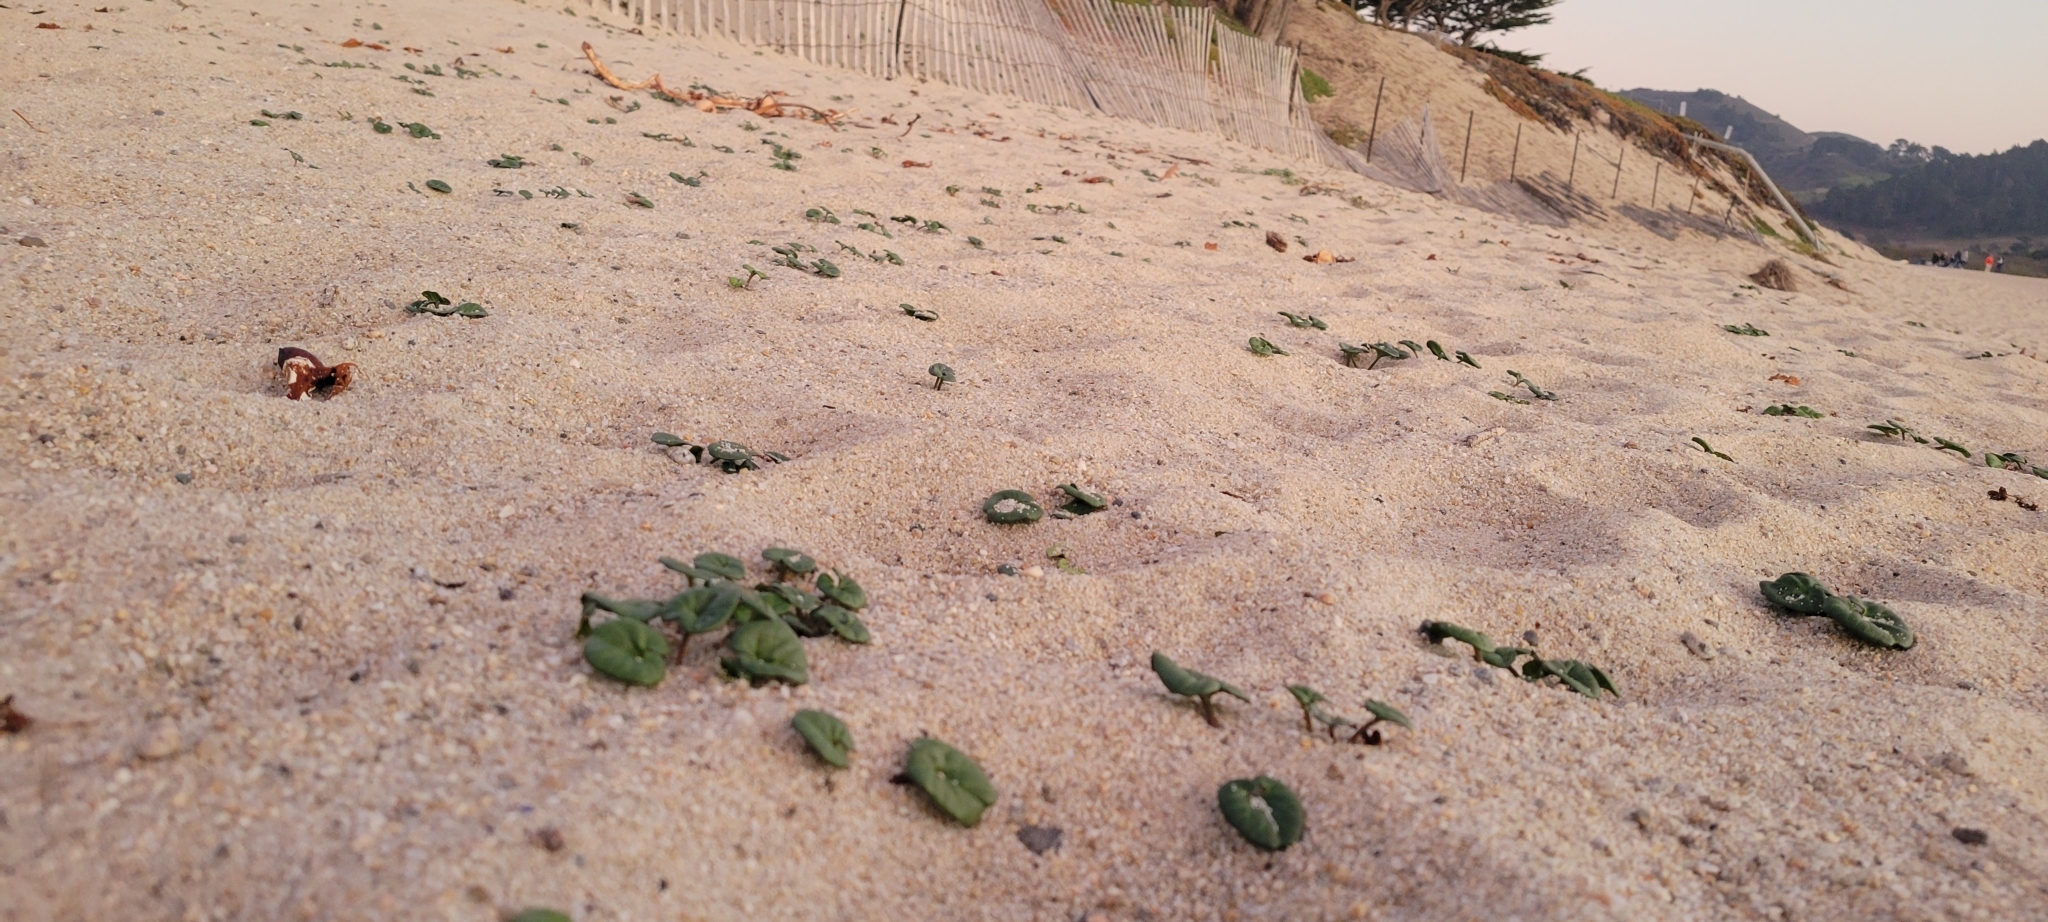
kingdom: Plantae
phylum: Tracheophyta
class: Magnoliopsida
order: Solanales
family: Convolvulaceae
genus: Calystegia
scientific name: Calystegia soldanella
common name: Sea bindweed
